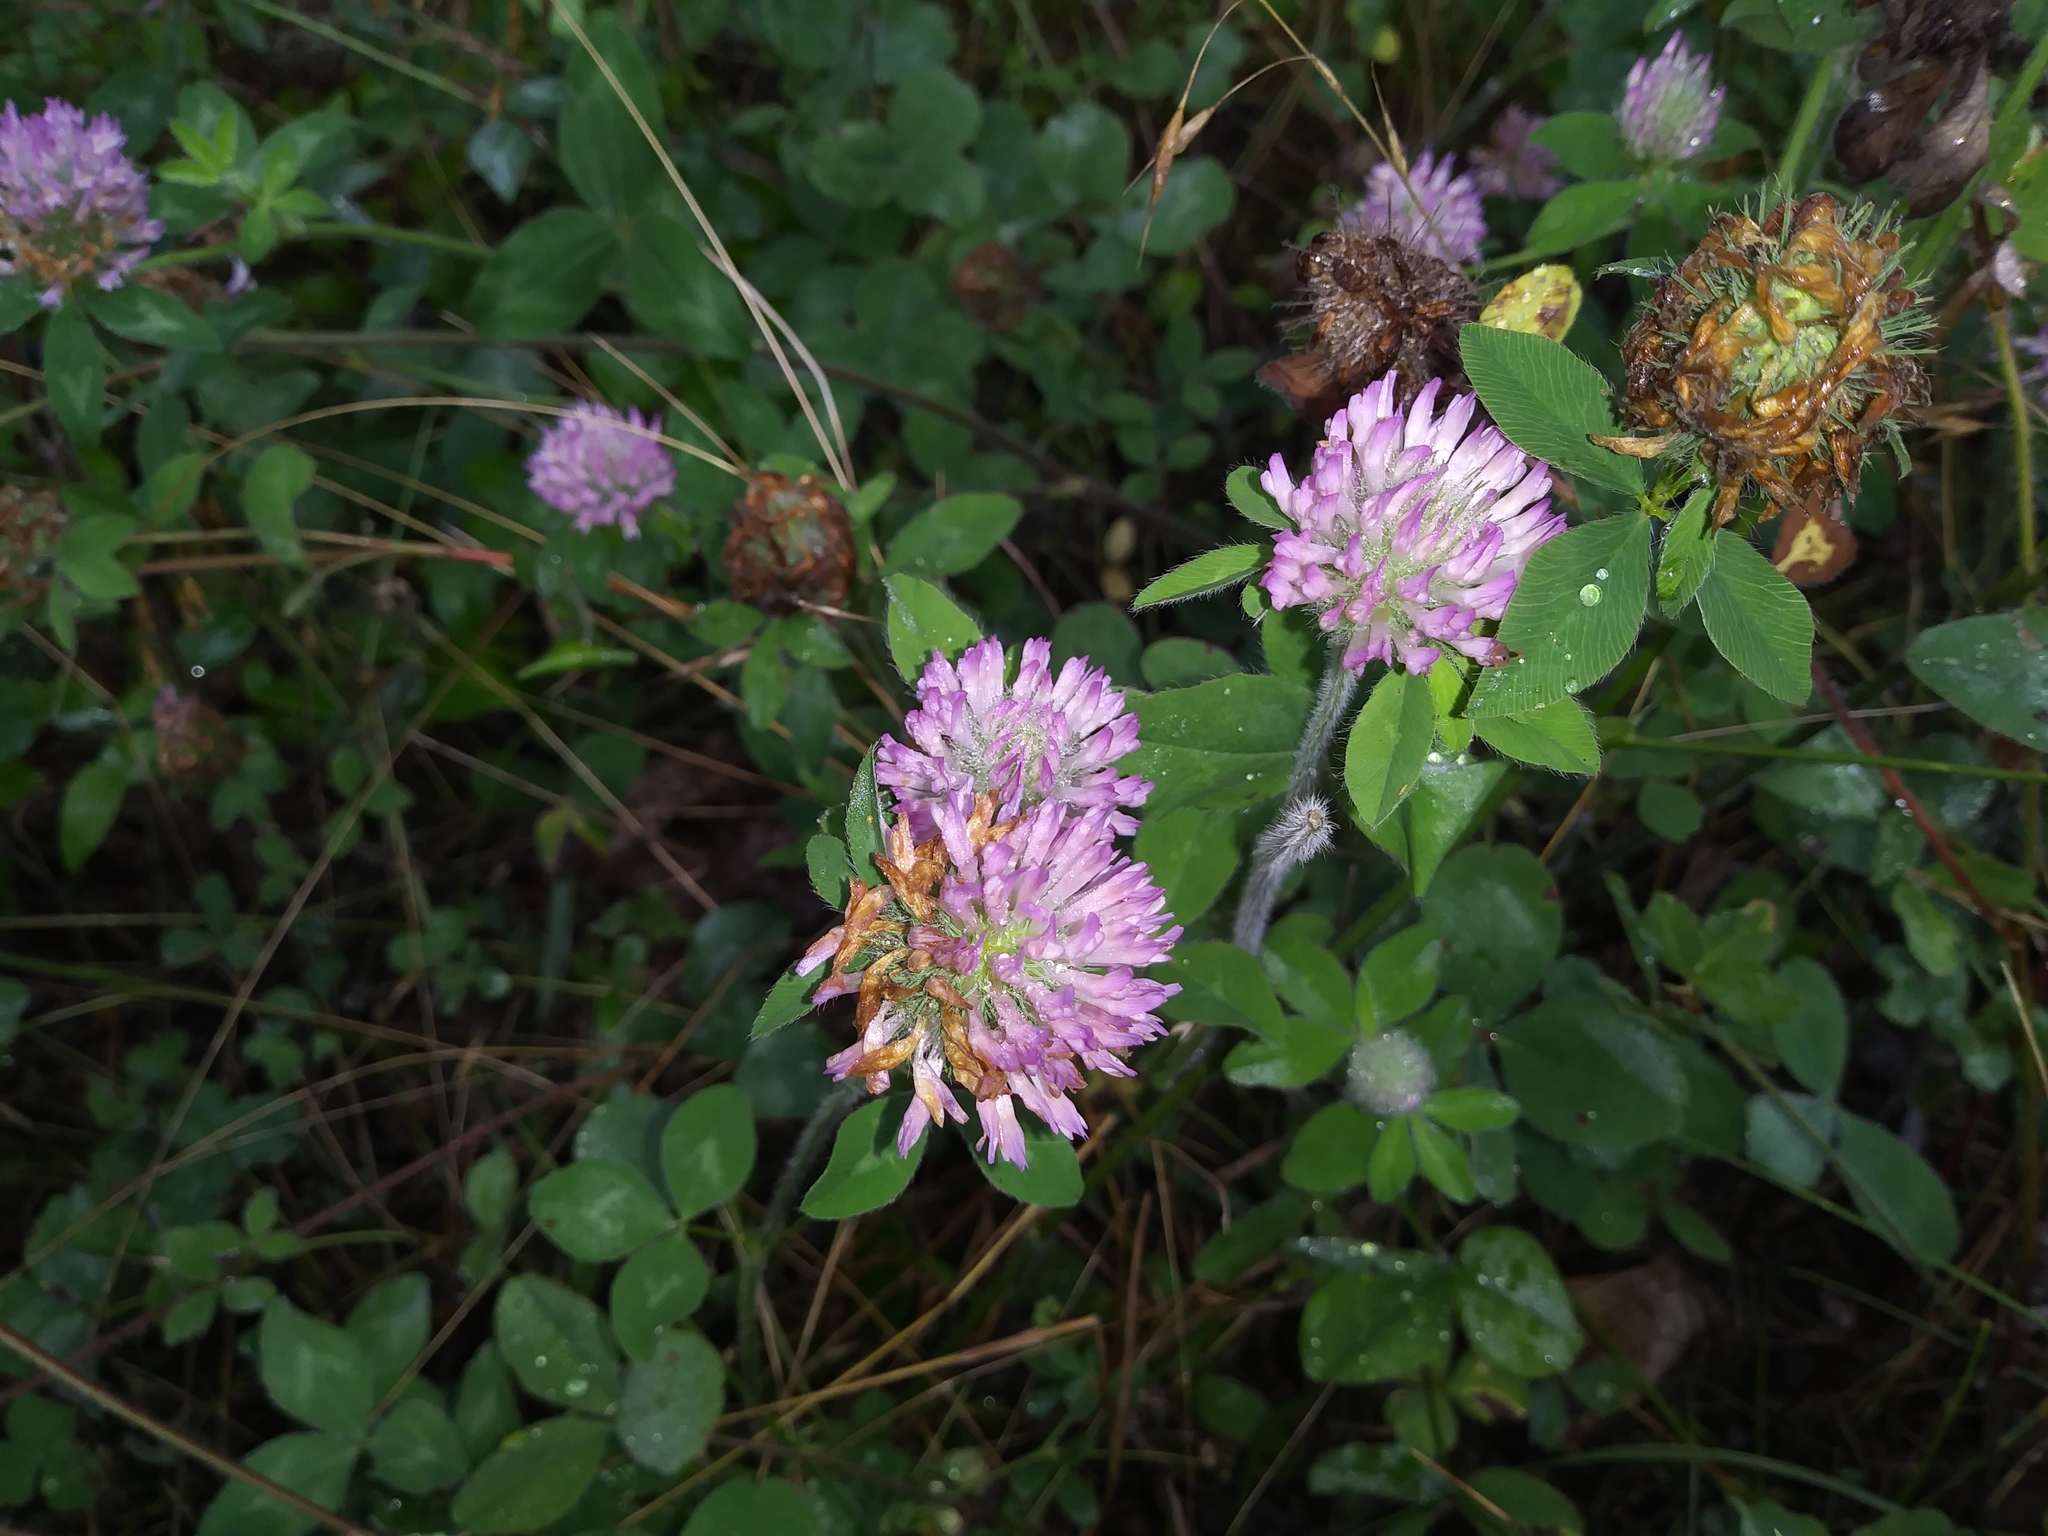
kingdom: Plantae
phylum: Tracheophyta
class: Magnoliopsida
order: Fabales
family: Fabaceae
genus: Trifolium
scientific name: Trifolium pratense
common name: Red clover
